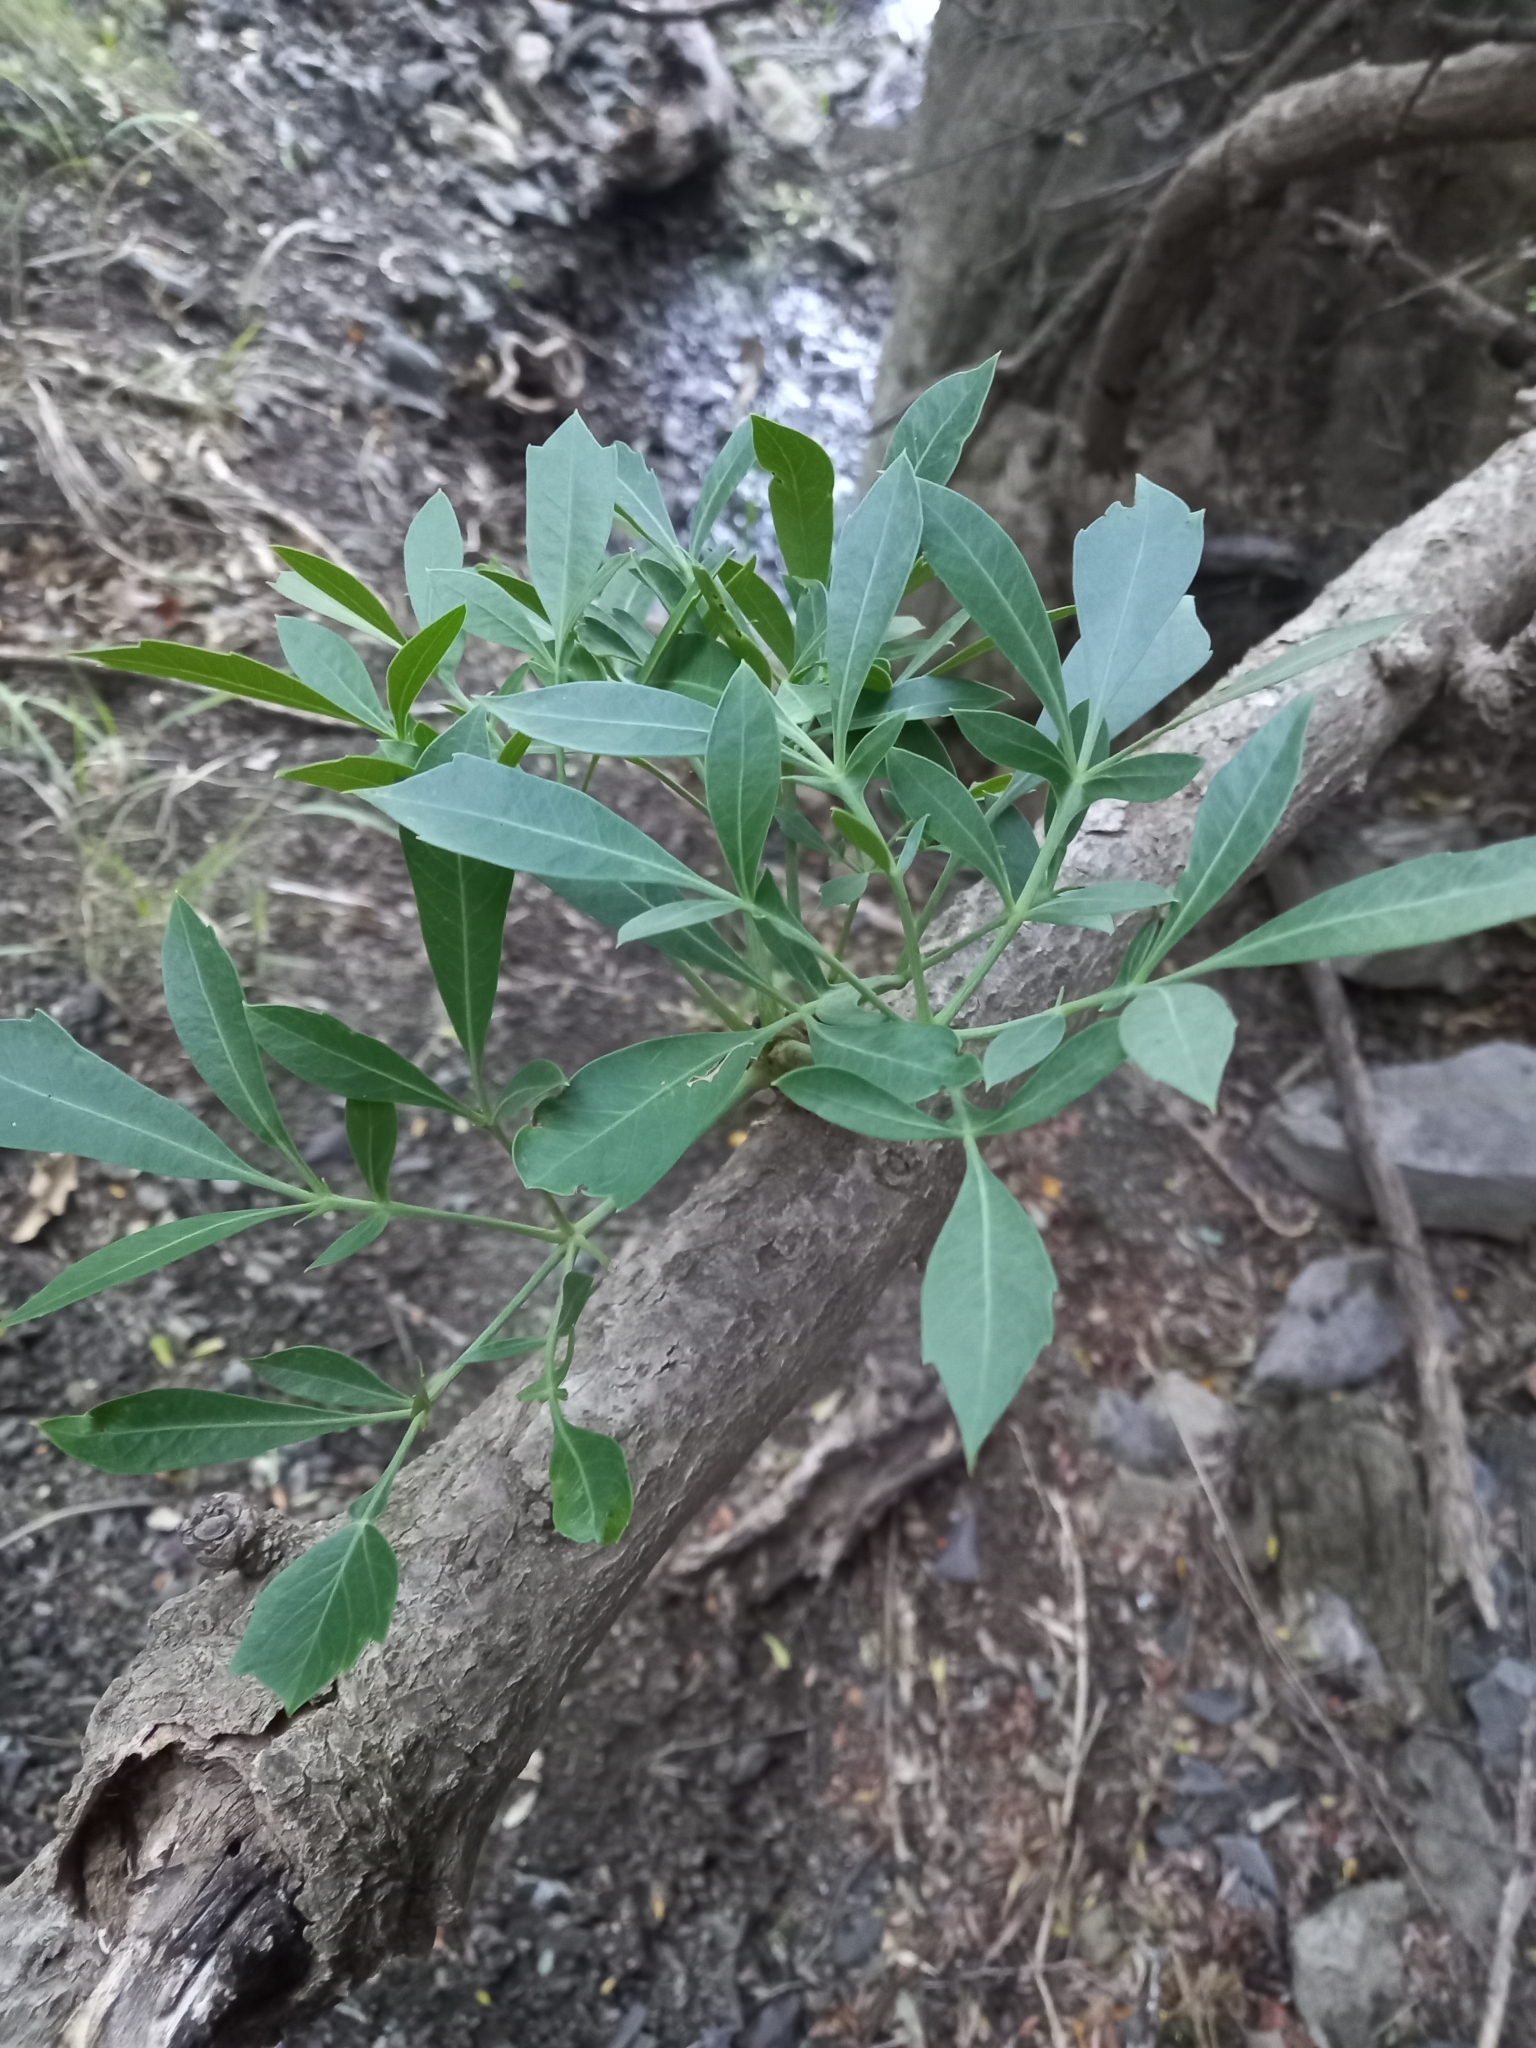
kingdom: Plantae
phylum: Tracheophyta
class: Magnoliopsida
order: Apiales
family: Araliaceae
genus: Cussonia
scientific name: Cussonia paniculata
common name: Cabbagetree
